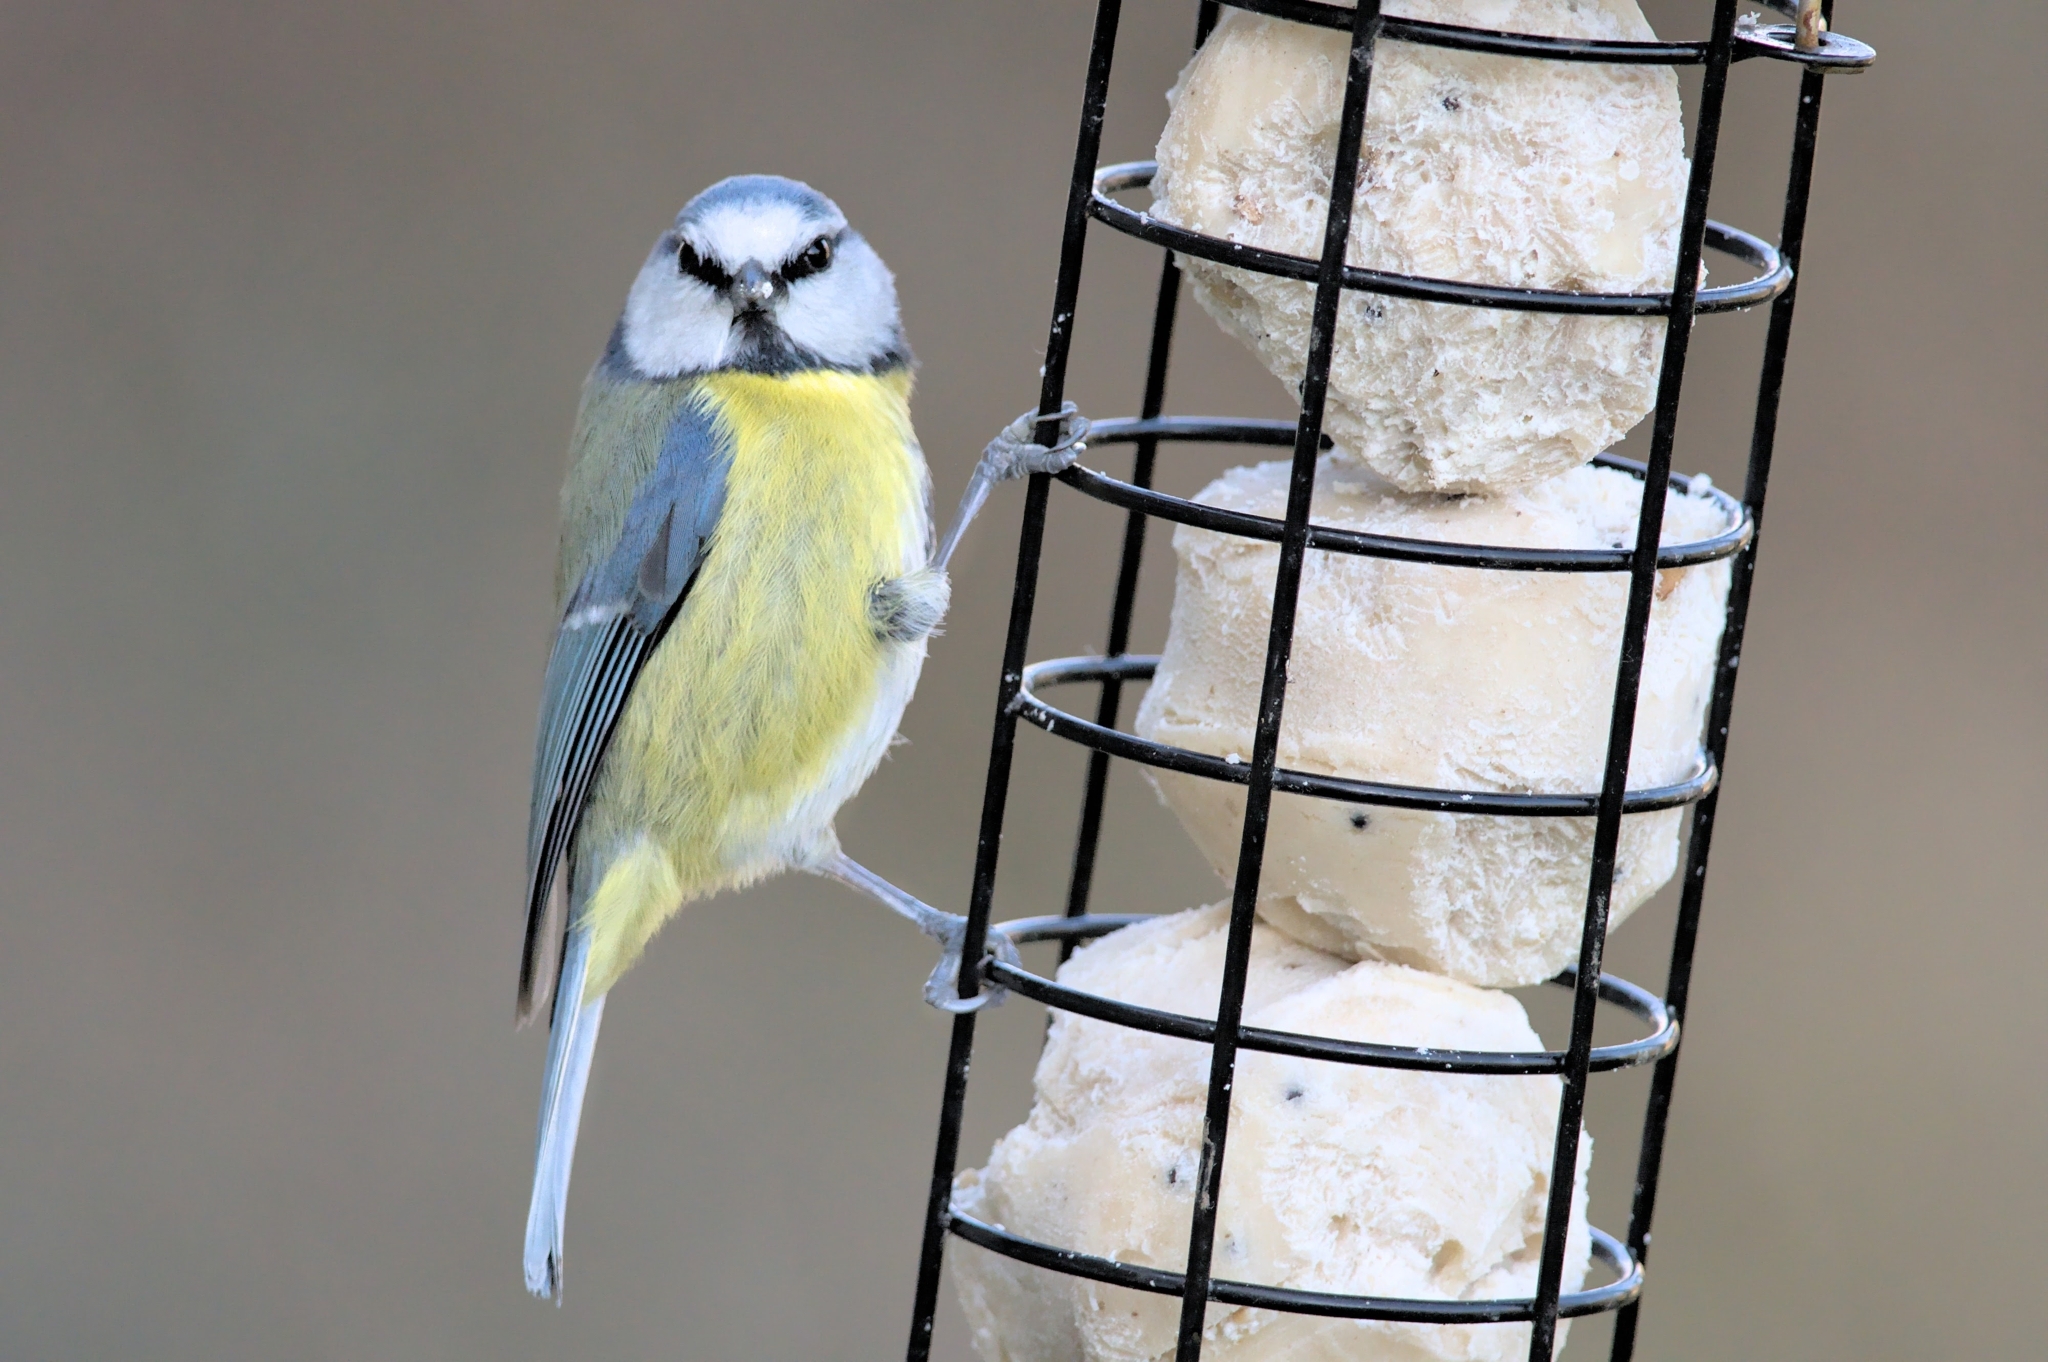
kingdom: Animalia
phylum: Chordata
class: Aves
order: Passeriformes
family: Paridae
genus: Cyanistes
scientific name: Cyanistes caeruleus
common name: Eurasian blue tit
